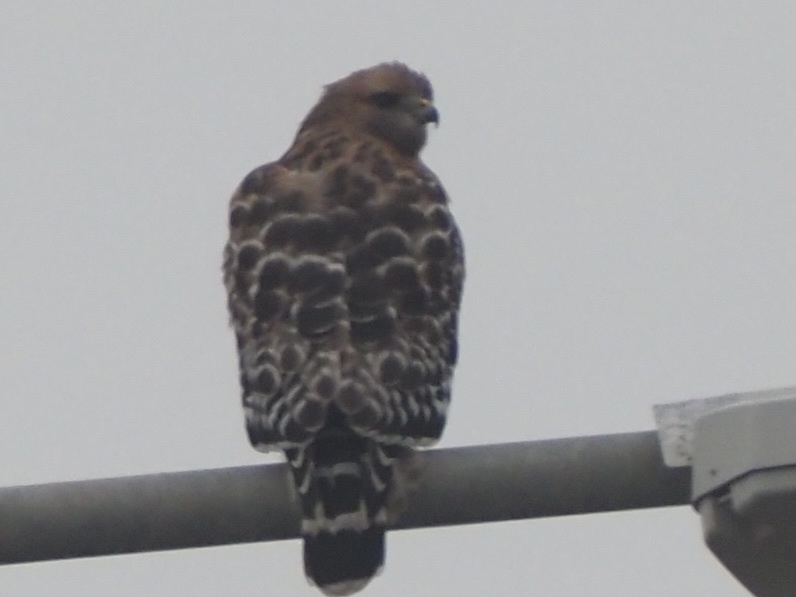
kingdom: Animalia
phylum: Chordata
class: Aves
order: Accipitriformes
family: Accipitridae
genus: Buteo
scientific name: Buteo lineatus
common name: Red-shouldered hawk
